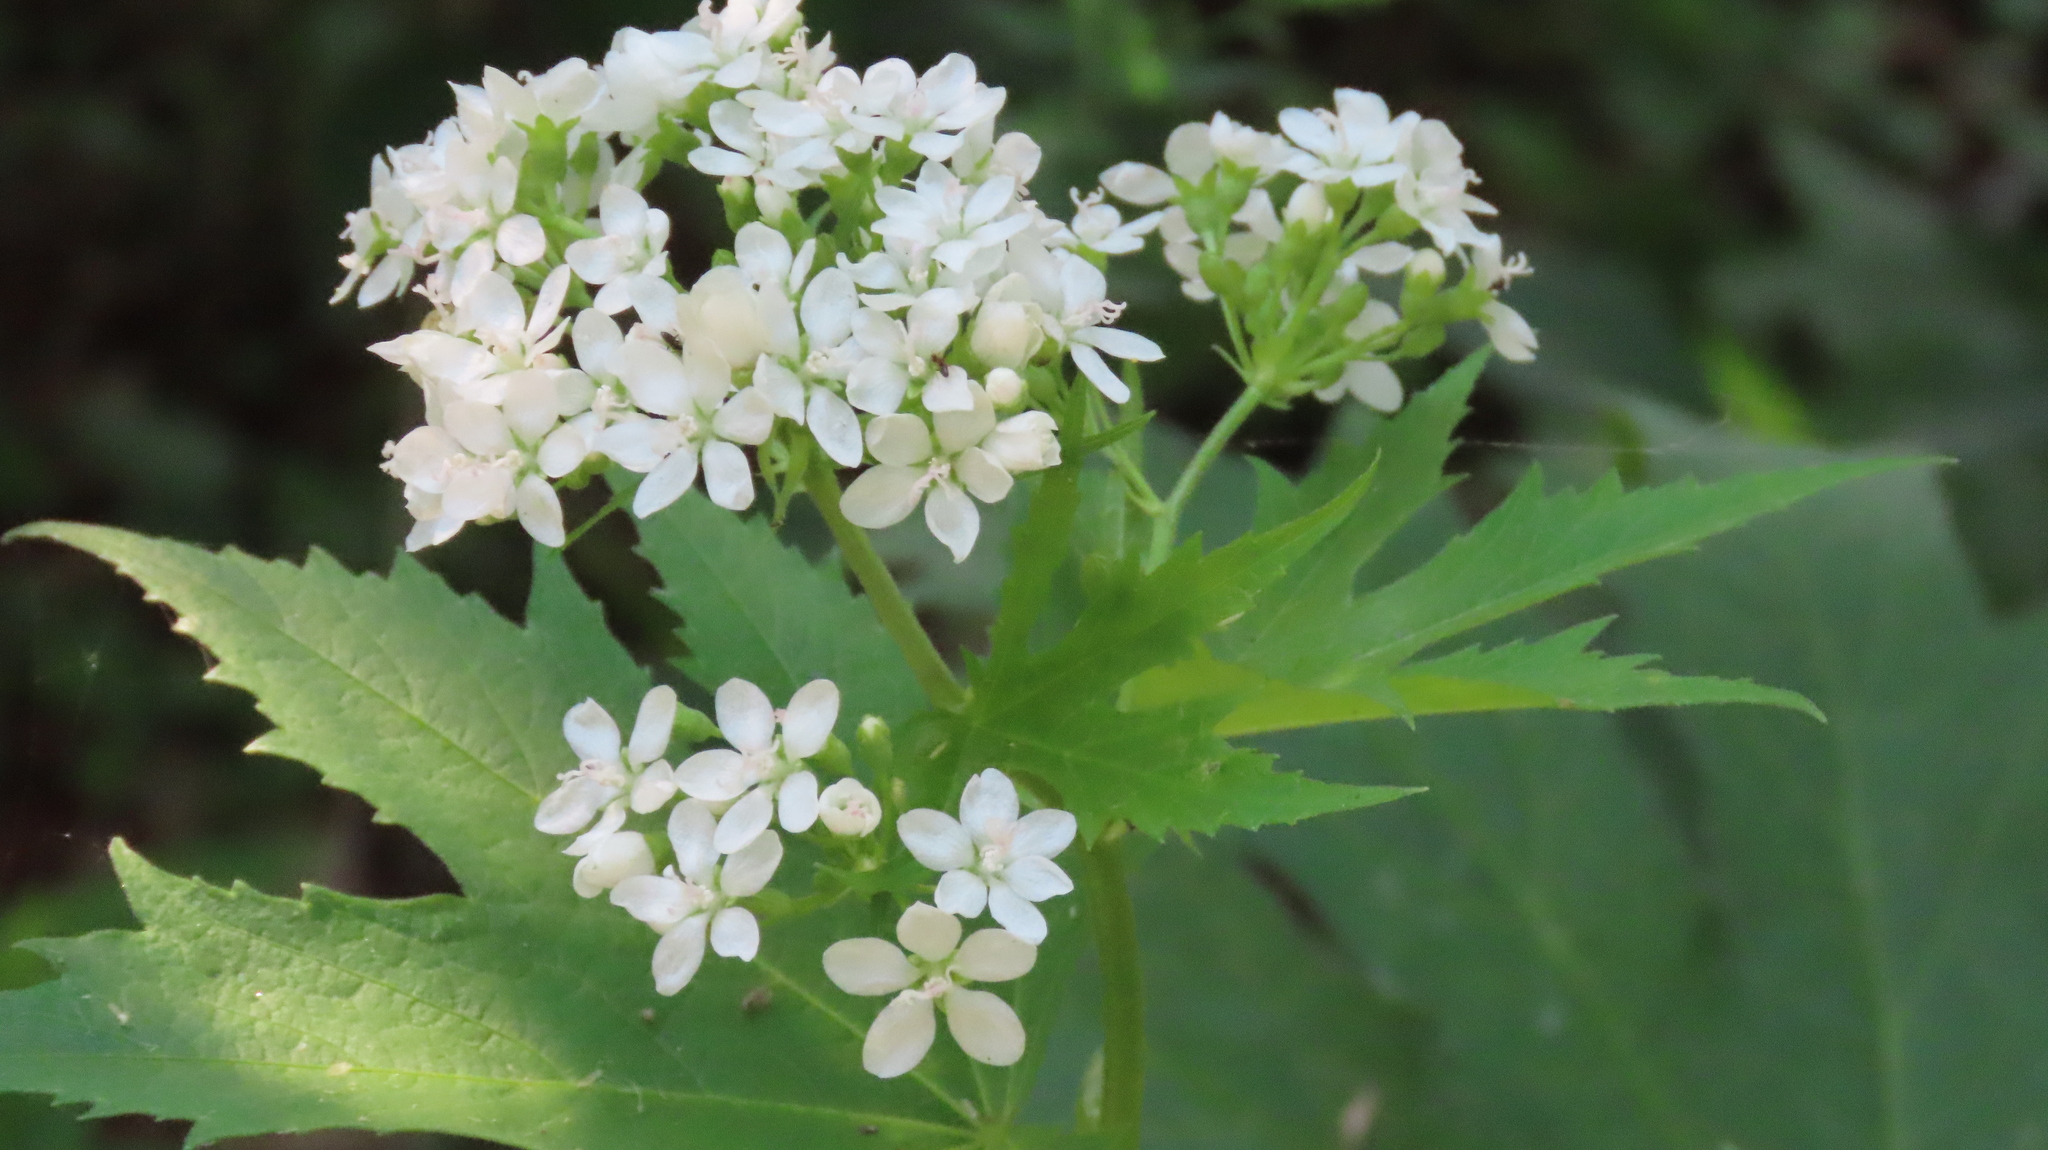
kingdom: Plantae
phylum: Tracheophyta
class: Magnoliopsida
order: Malvales
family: Malvaceae
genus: Napaea
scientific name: Napaea dioica
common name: Glade-mallow
